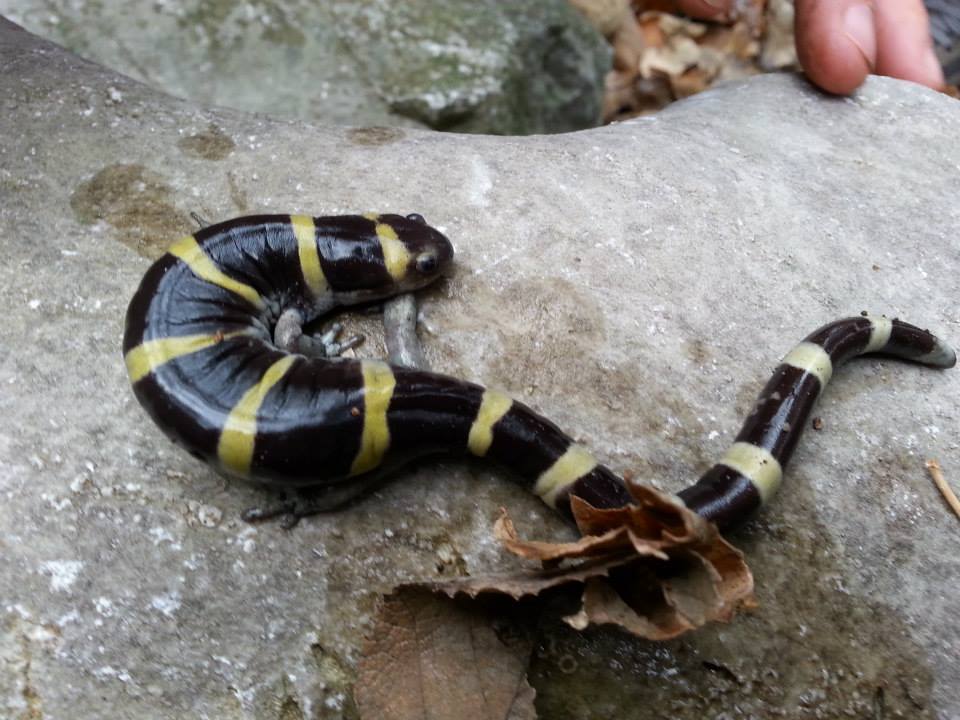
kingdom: Animalia
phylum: Chordata
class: Amphibia
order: Caudata
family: Ambystomatidae
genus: Ambystoma
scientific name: Ambystoma annulatum
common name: Ringed salamander
